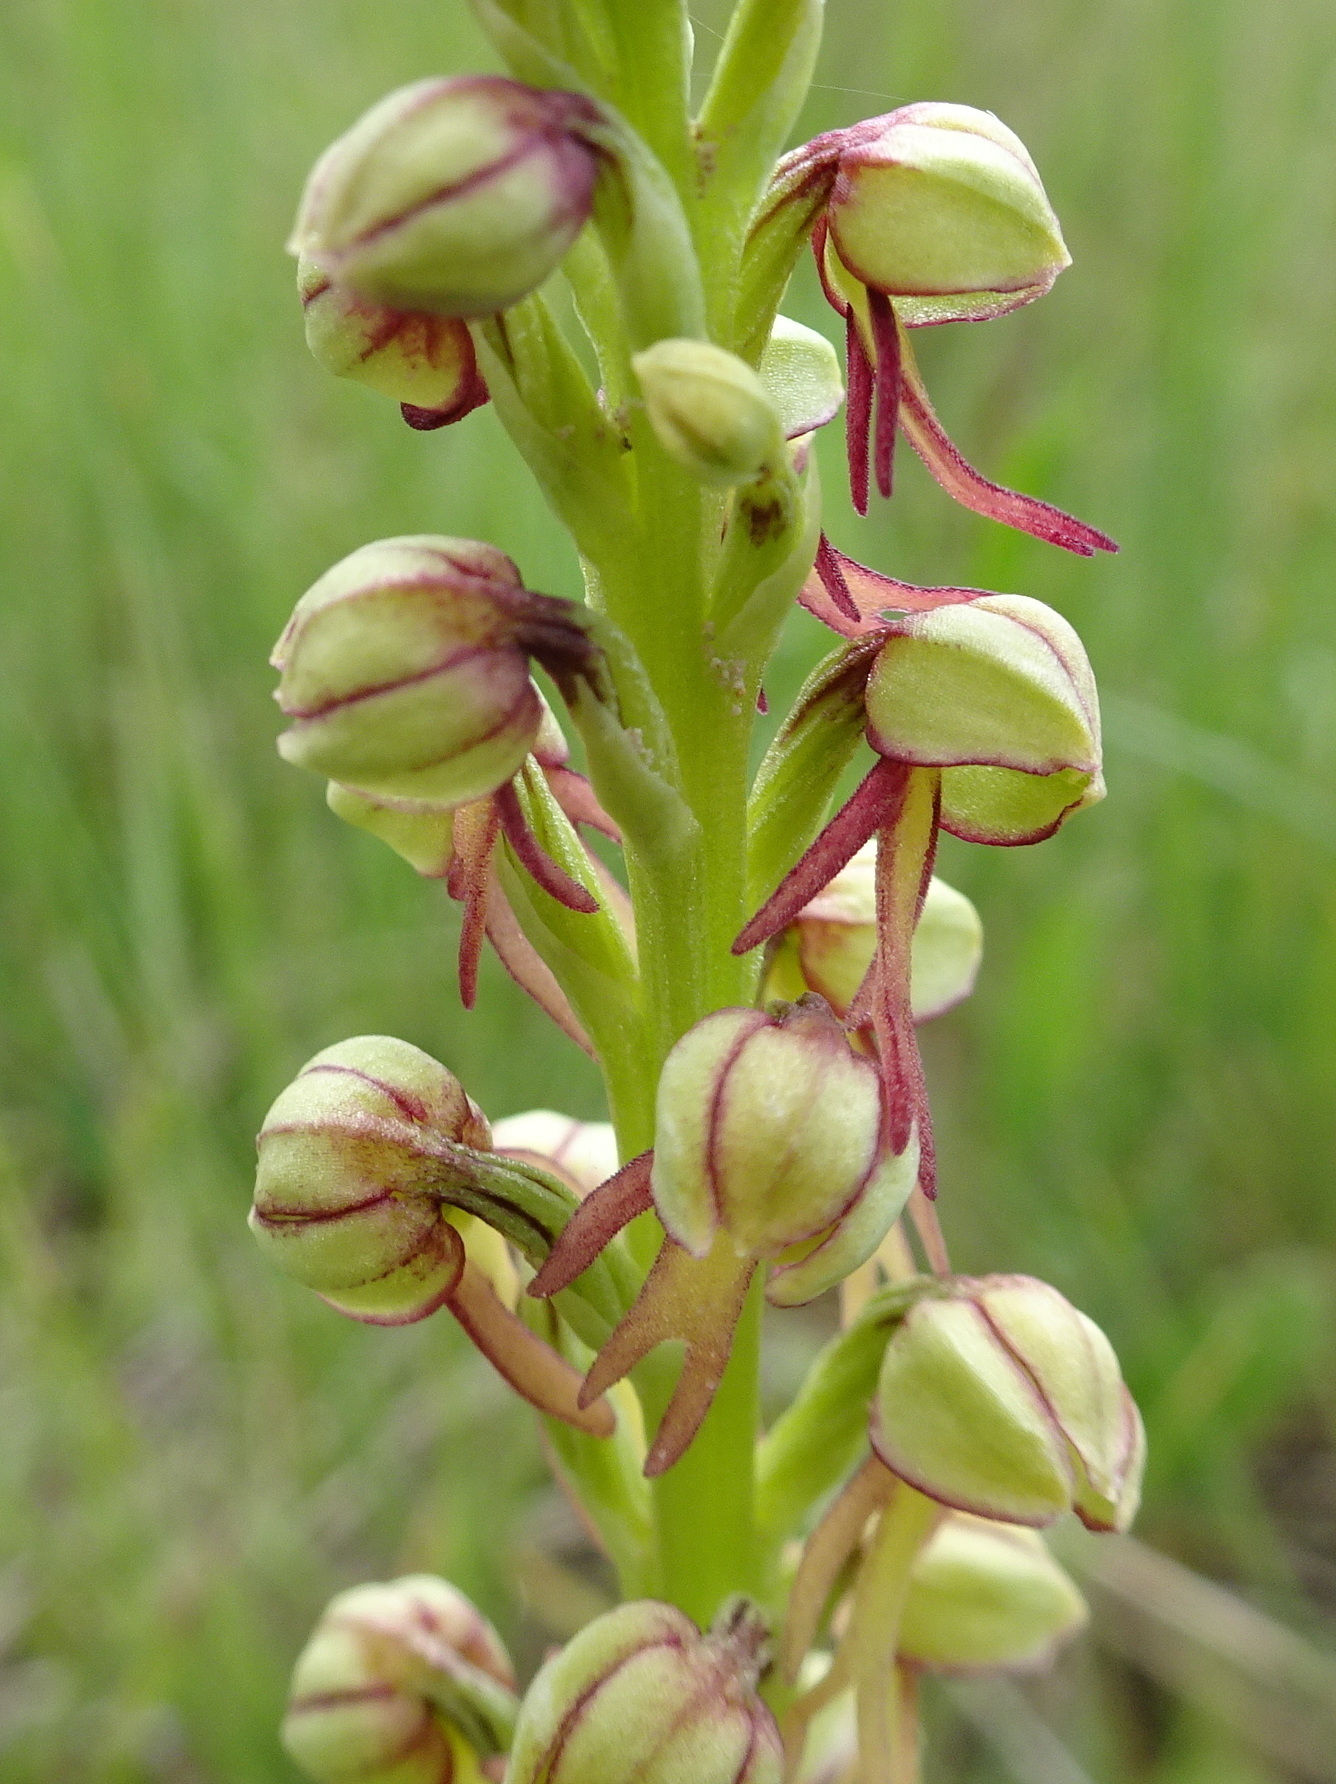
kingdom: Plantae
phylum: Tracheophyta
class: Liliopsida
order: Asparagales
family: Orchidaceae
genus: Orchis
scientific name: Orchis anthropophora
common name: Man orchid
